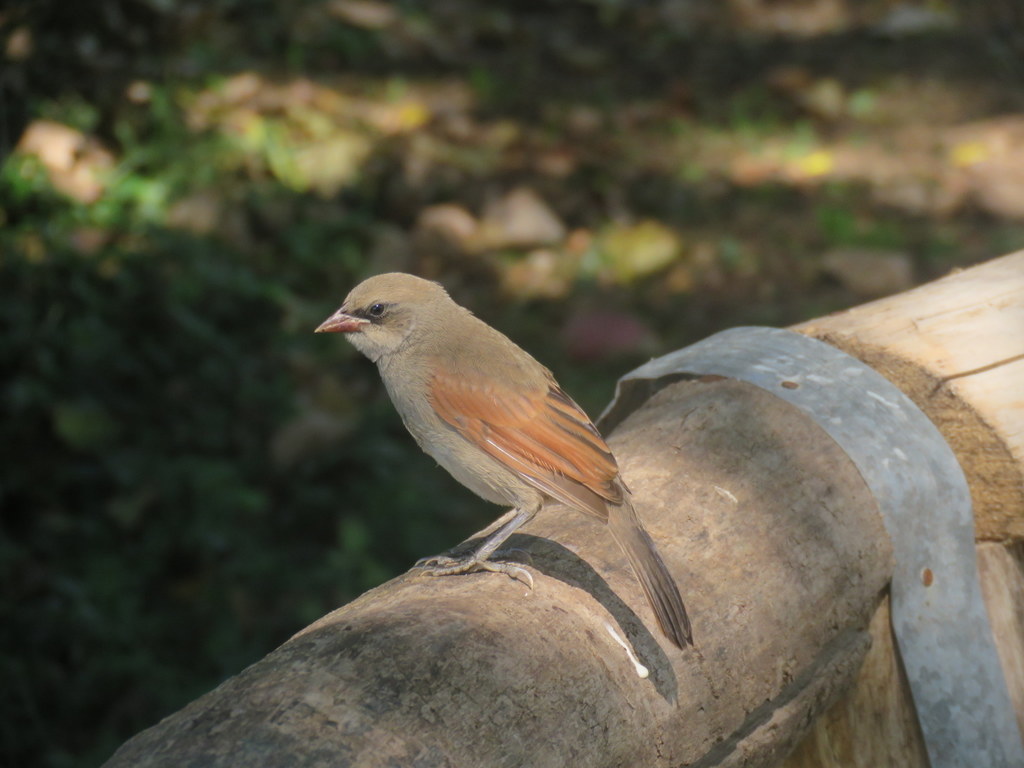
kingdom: Animalia
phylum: Chordata
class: Aves
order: Passeriformes
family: Icteridae
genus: Agelaioides
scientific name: Agelaioides badius
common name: Baywing
